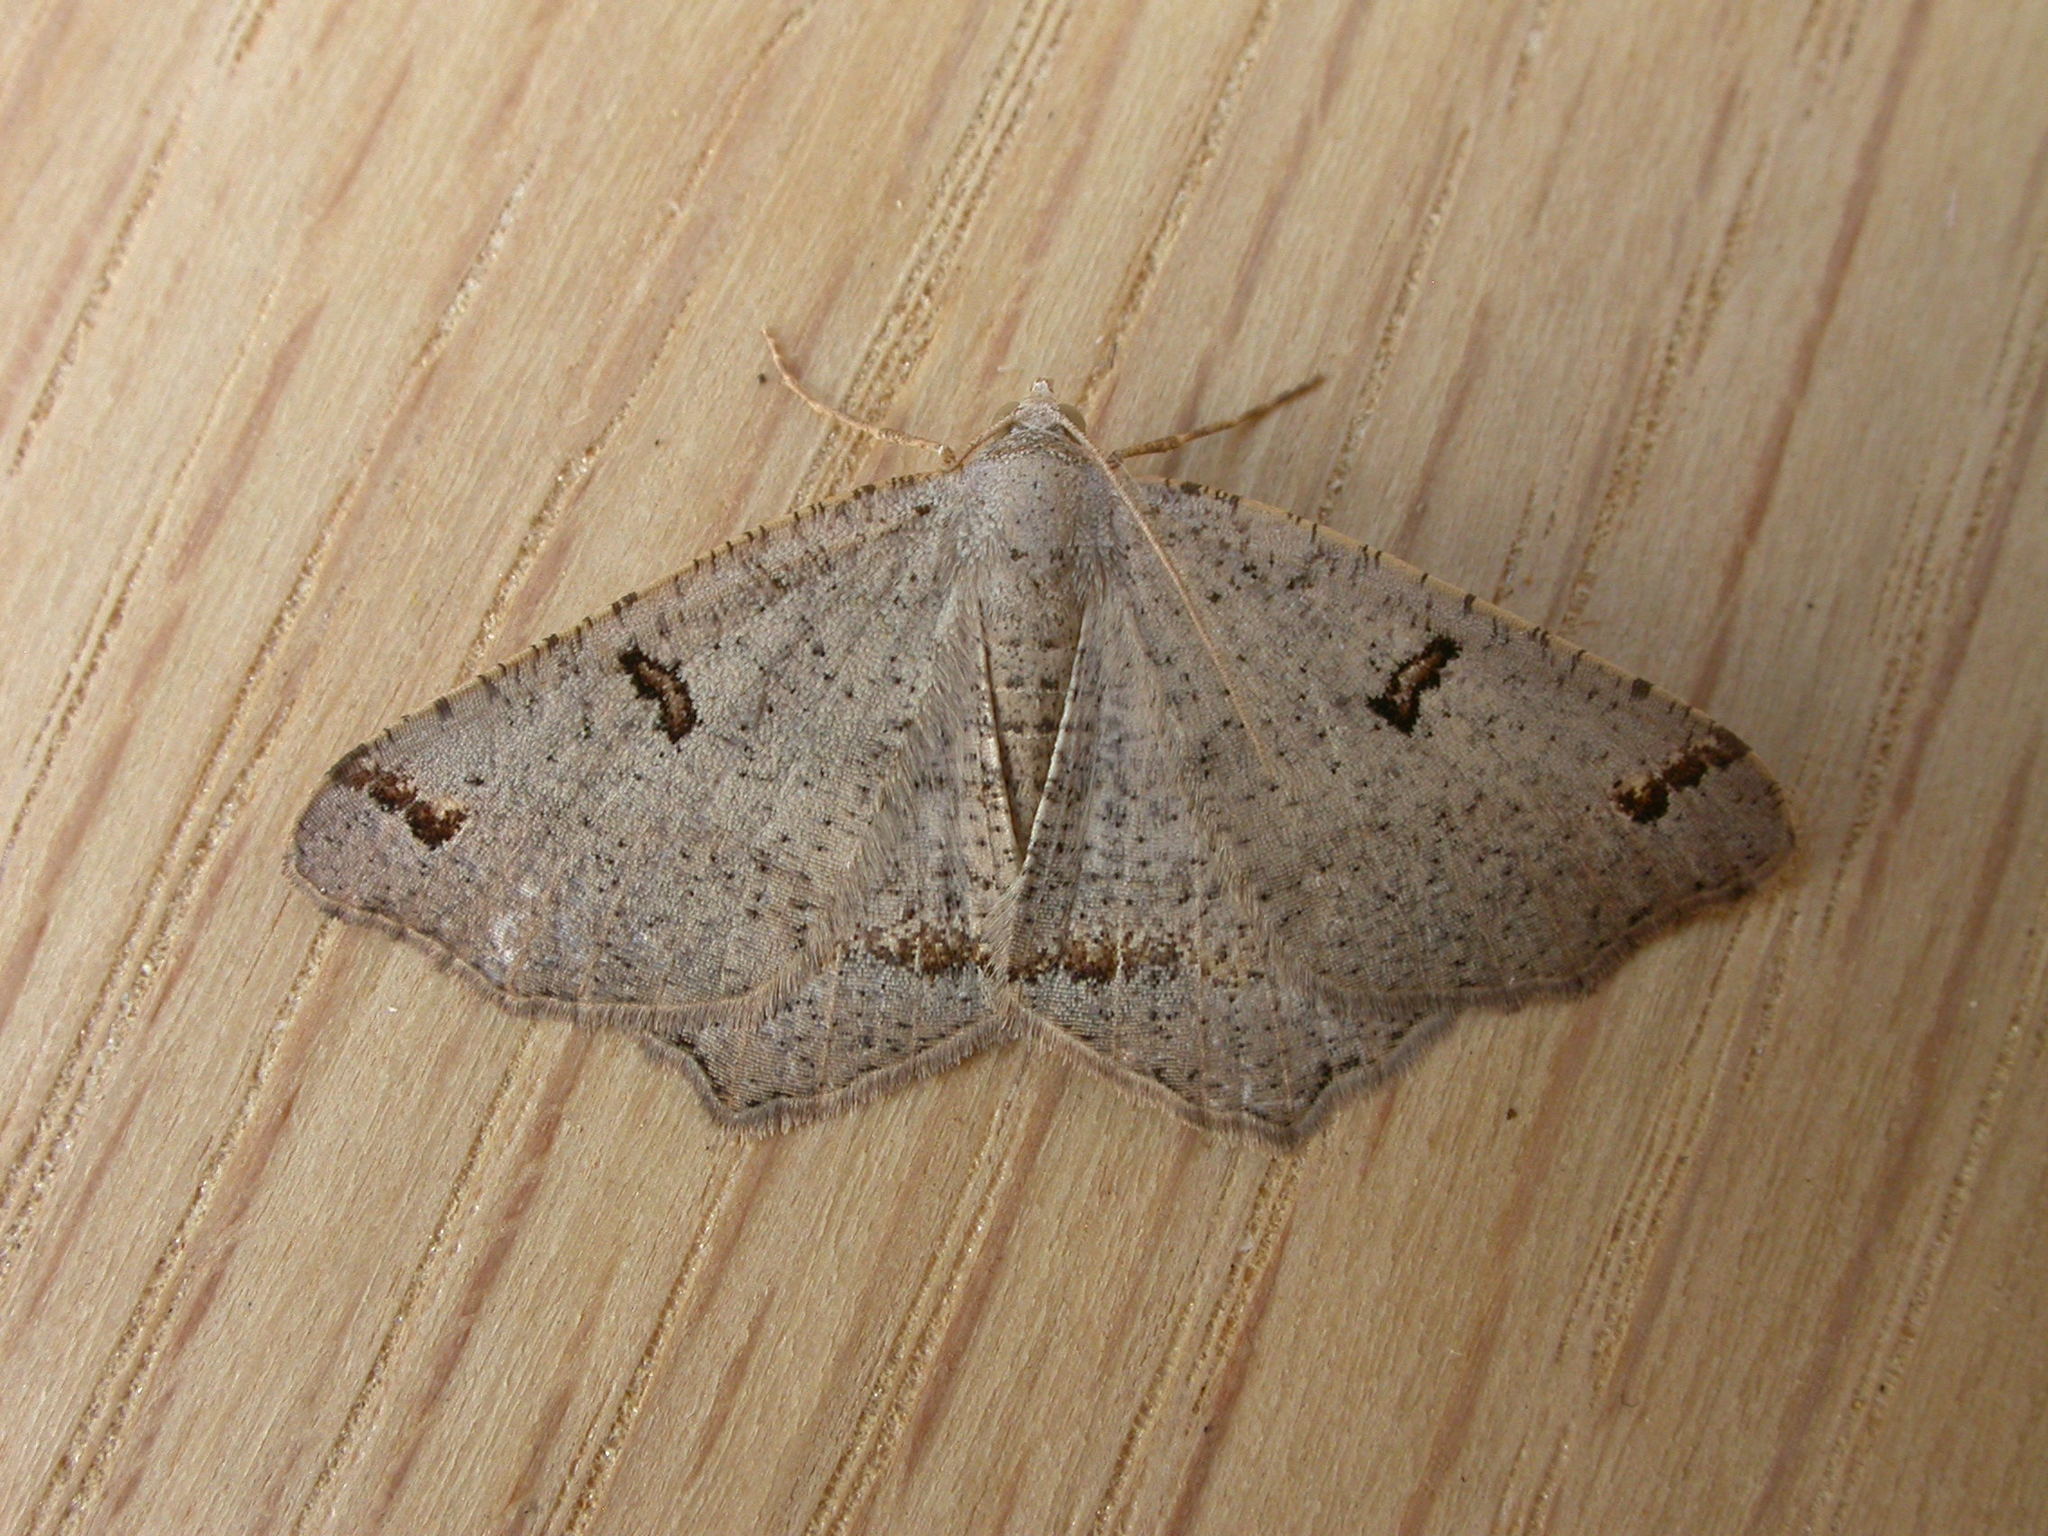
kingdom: Animalia
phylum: Arthropoda
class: Insecta
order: Lepidoptera
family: Geometridae
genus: Dissomorphia
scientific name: Dissomorphia australiaria
